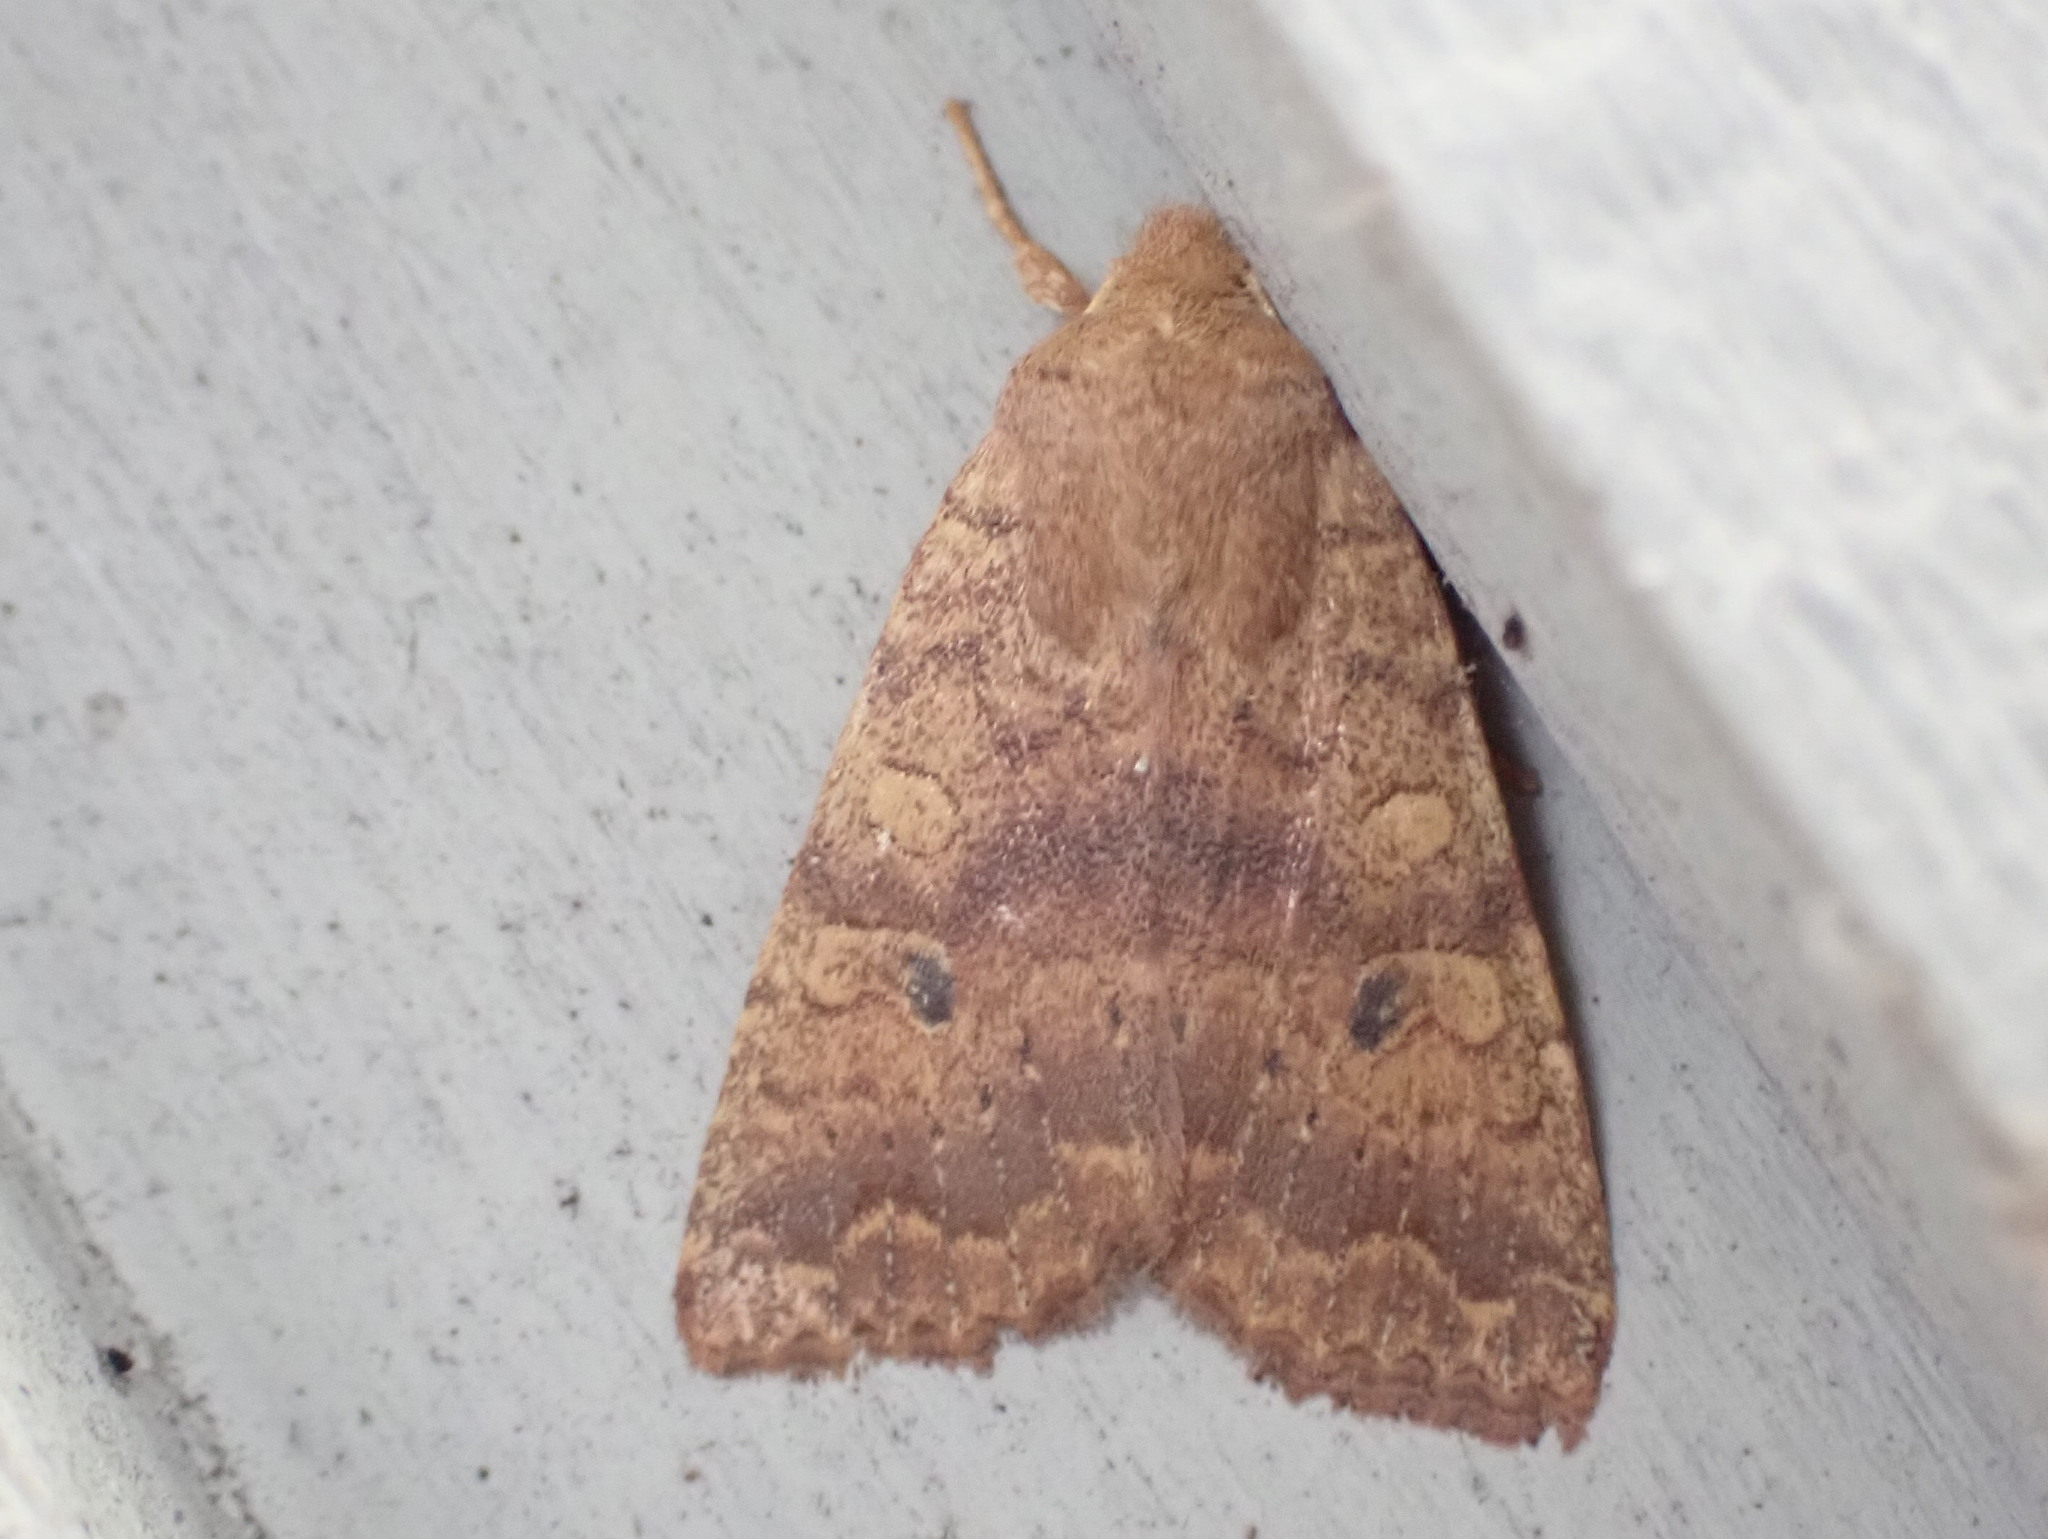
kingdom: Animalia
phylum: Arthropoda
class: Insecta
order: Lepidoptera
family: Noctuidae
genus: Agrochola
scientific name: Agrochola bicolorago
